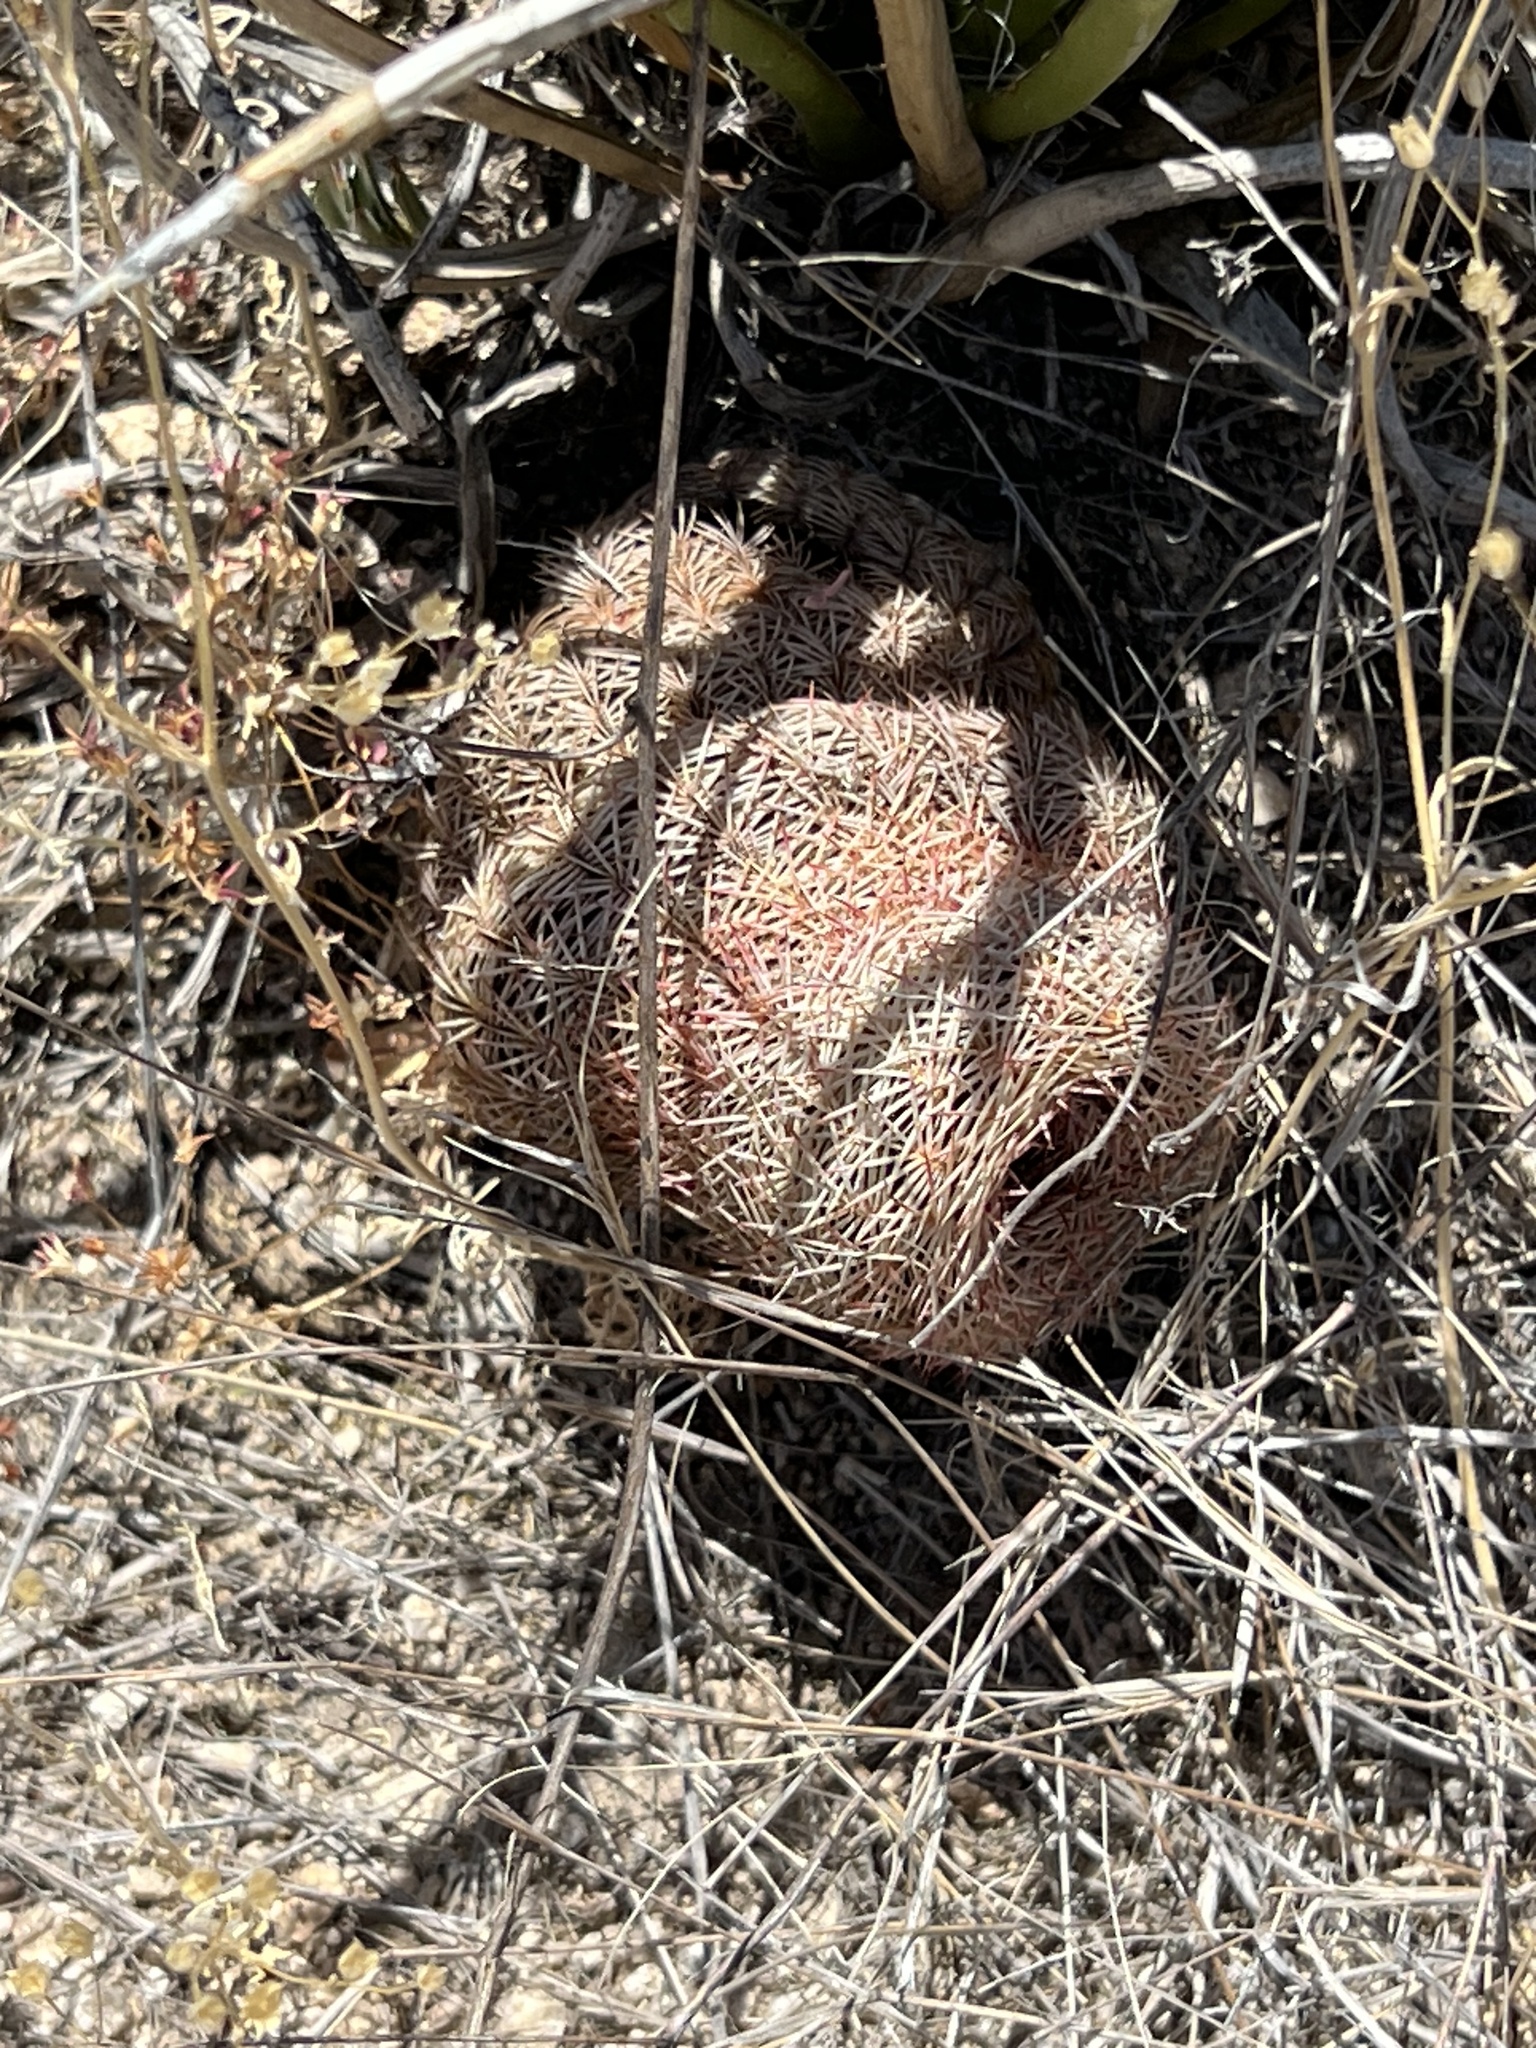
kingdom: Plantae
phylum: Tracheophyta
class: Magnoliopsida
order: Caryophyllales
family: Cactaceae
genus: Echinocereus
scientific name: Echinocereus rigidissimus
